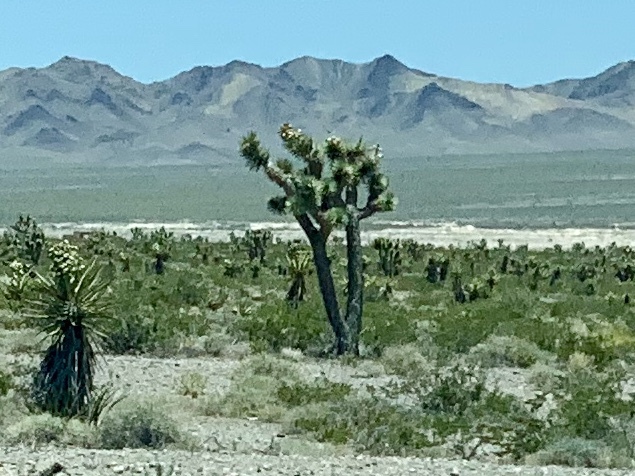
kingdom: Plantae
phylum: Tracheophyta
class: Liliopsida
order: Asparagales
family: Asparagaceae
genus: Yucca
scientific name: Yucca brevifolia
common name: Joshua tree
